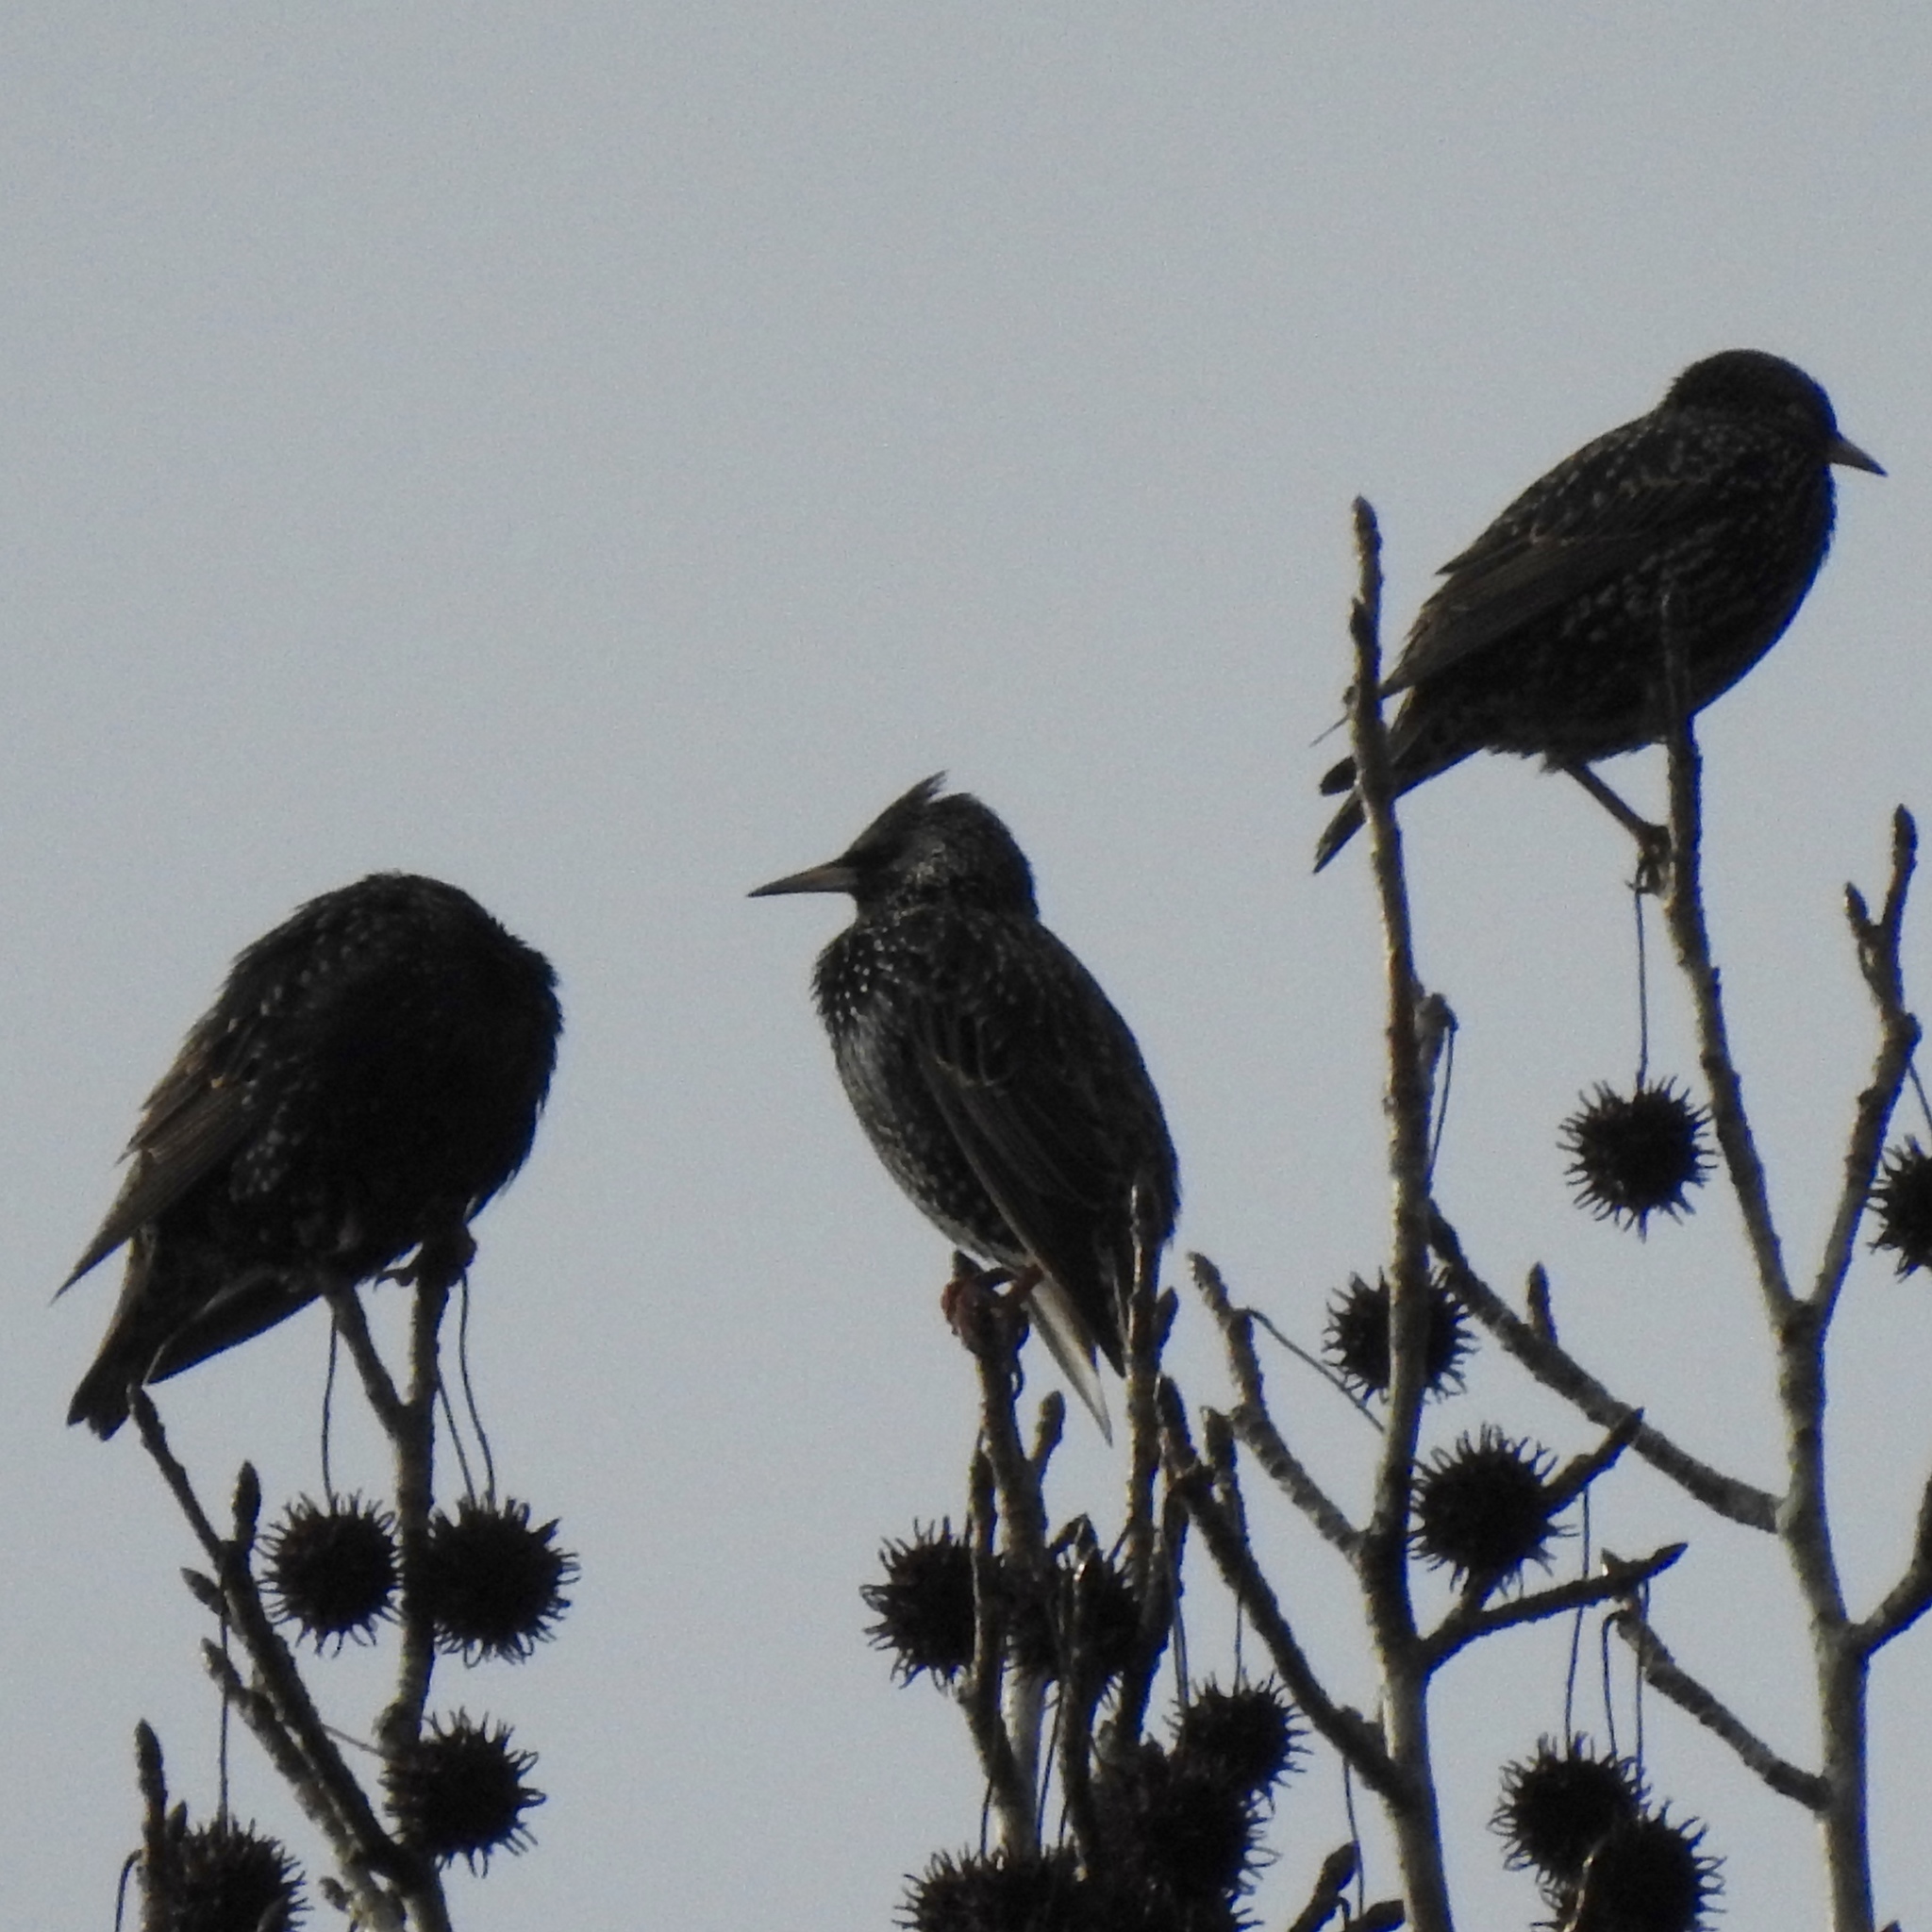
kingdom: Animalia
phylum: Chordata
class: Aves
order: Passeriformes
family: Sturnidae
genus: Sturnus
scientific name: Sturnus vulgaris
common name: Common starling
